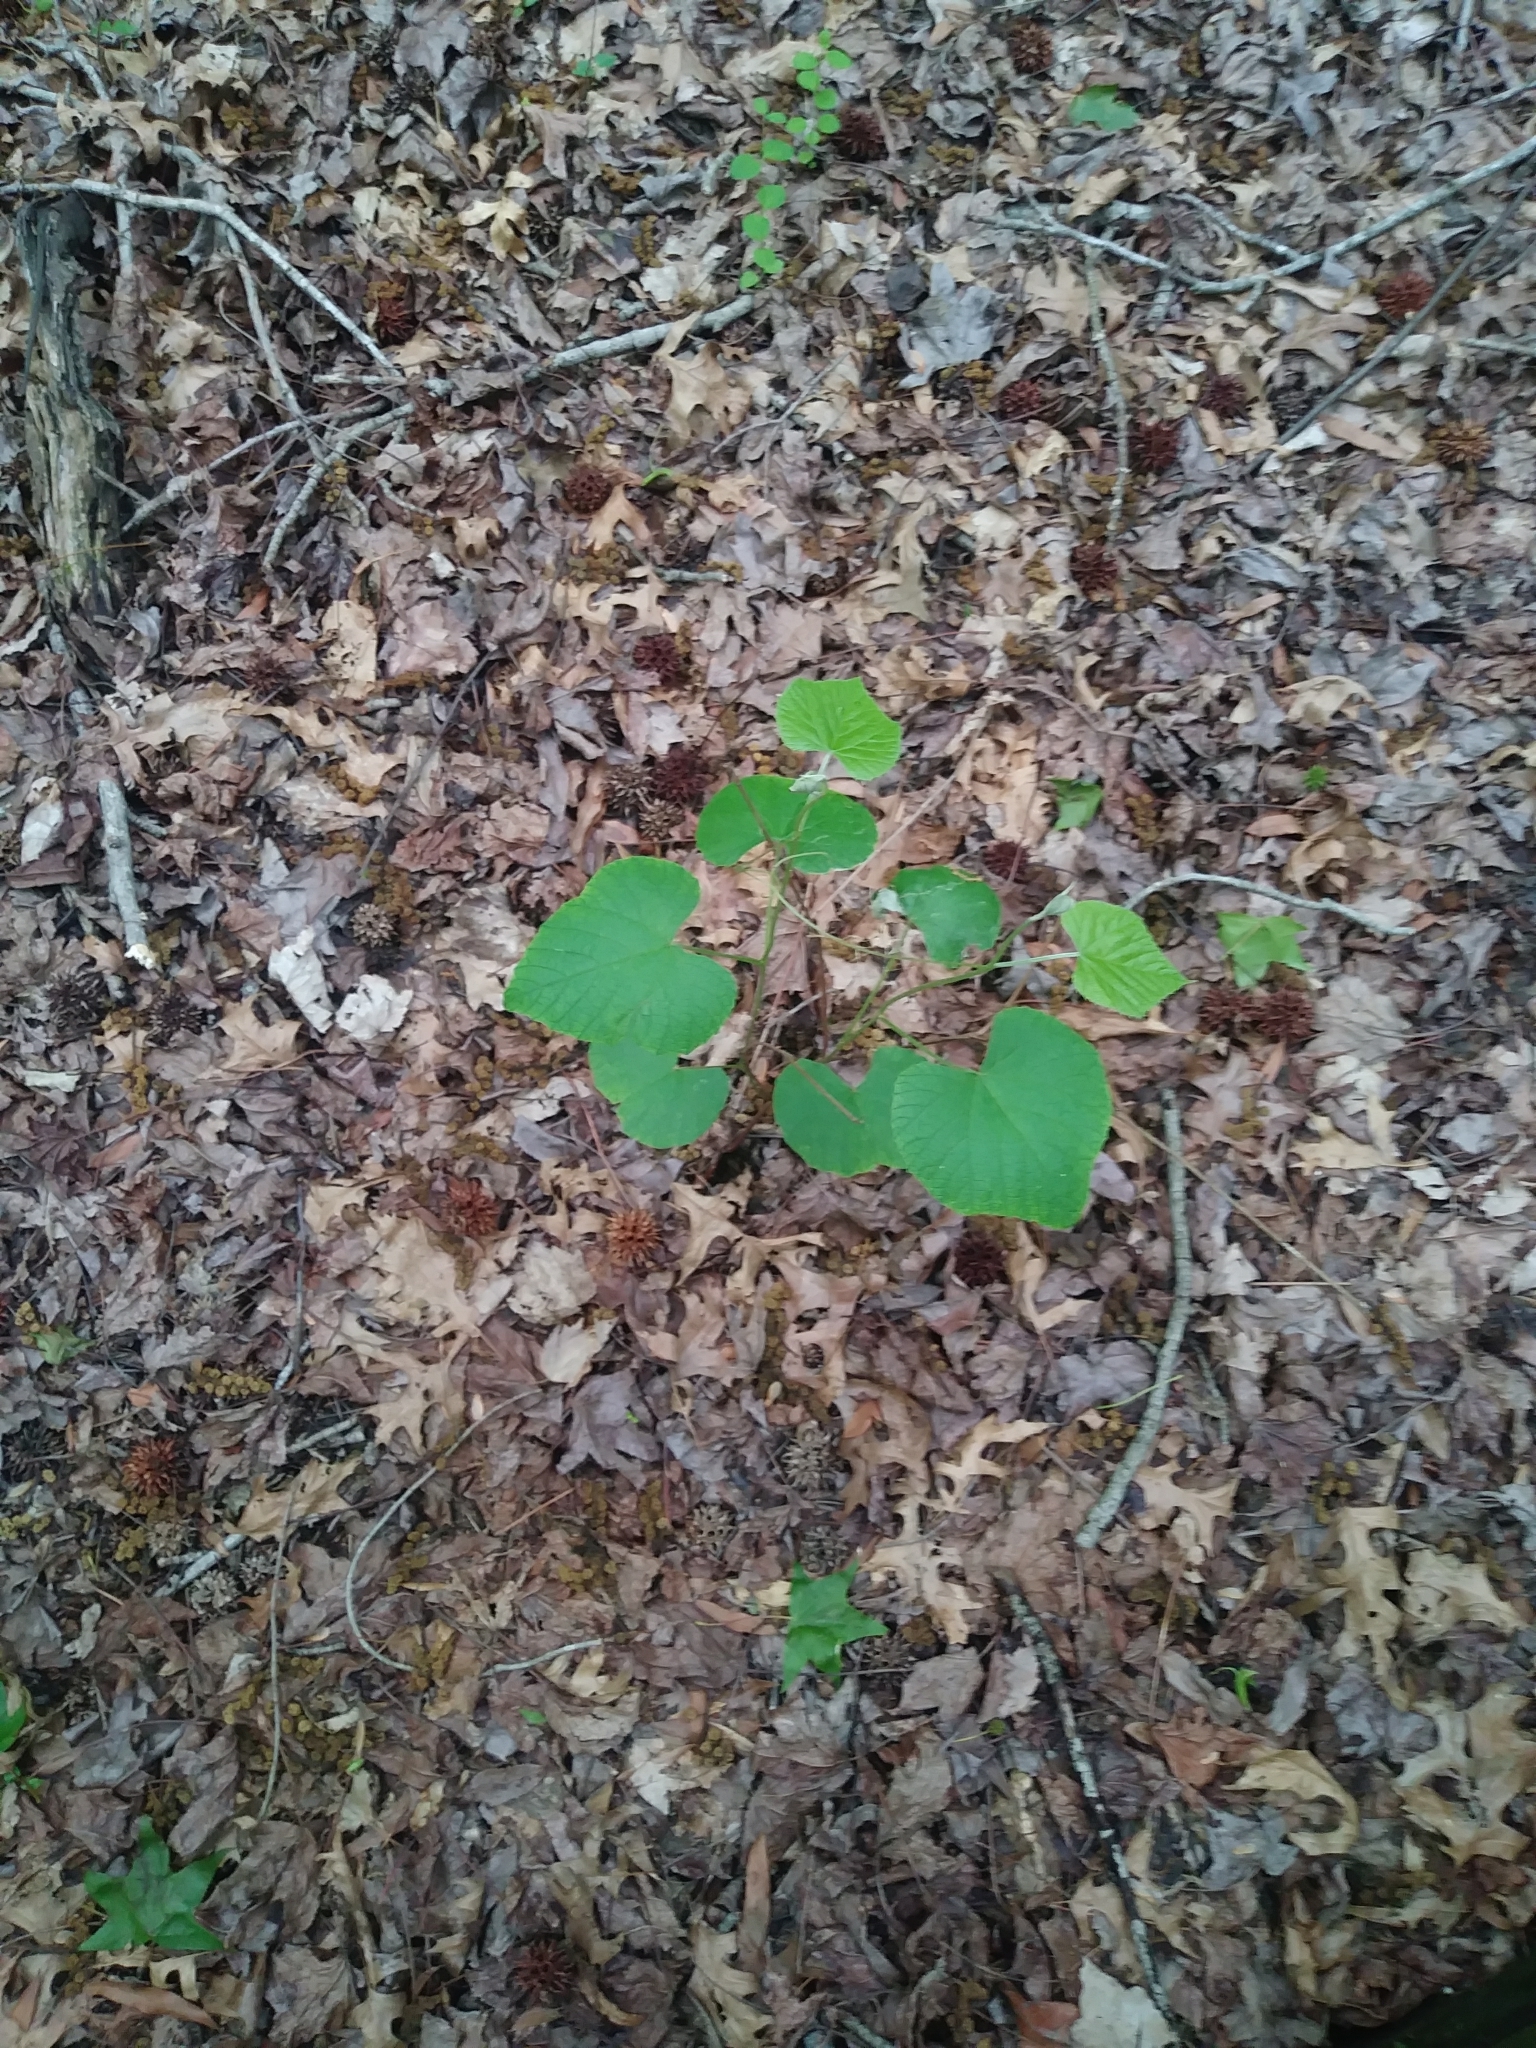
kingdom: Plantae
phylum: Tracheophyta
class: Magnoliopsida
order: Fabales
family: Fabaceae
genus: Cercis
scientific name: Cercis canadensis
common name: Eastern redbud
